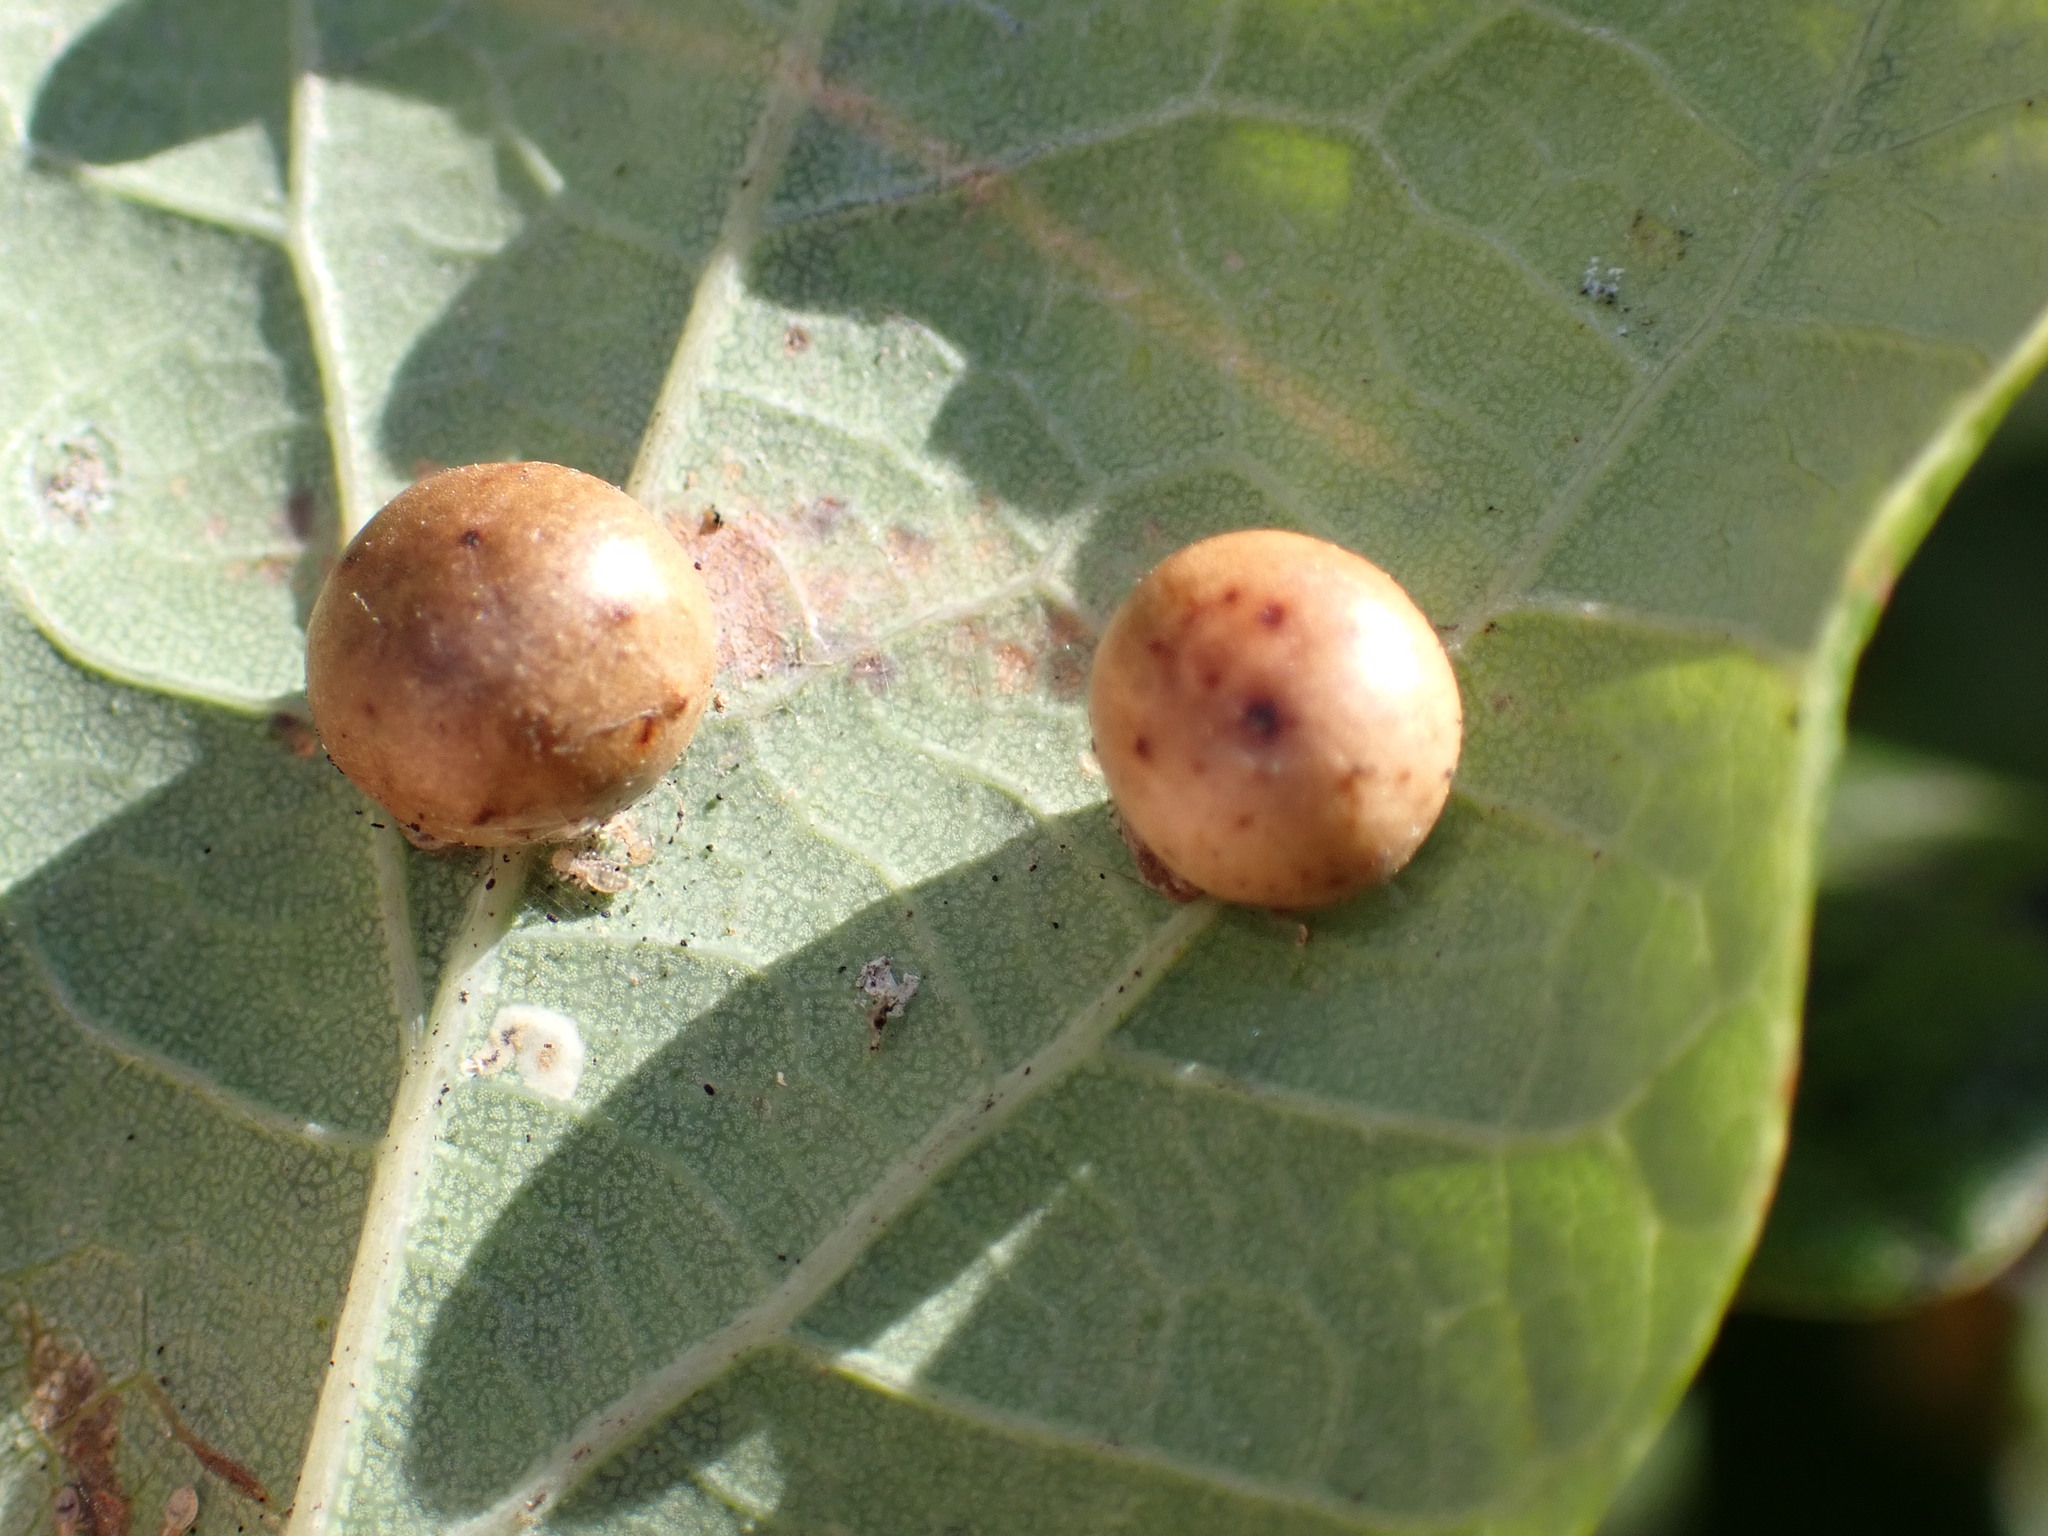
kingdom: Animalia
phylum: Arthropoda
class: Insecta
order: Hymenoptera
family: Cynipidae
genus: Cynips
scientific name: Cynips divisa
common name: Red currant gall
